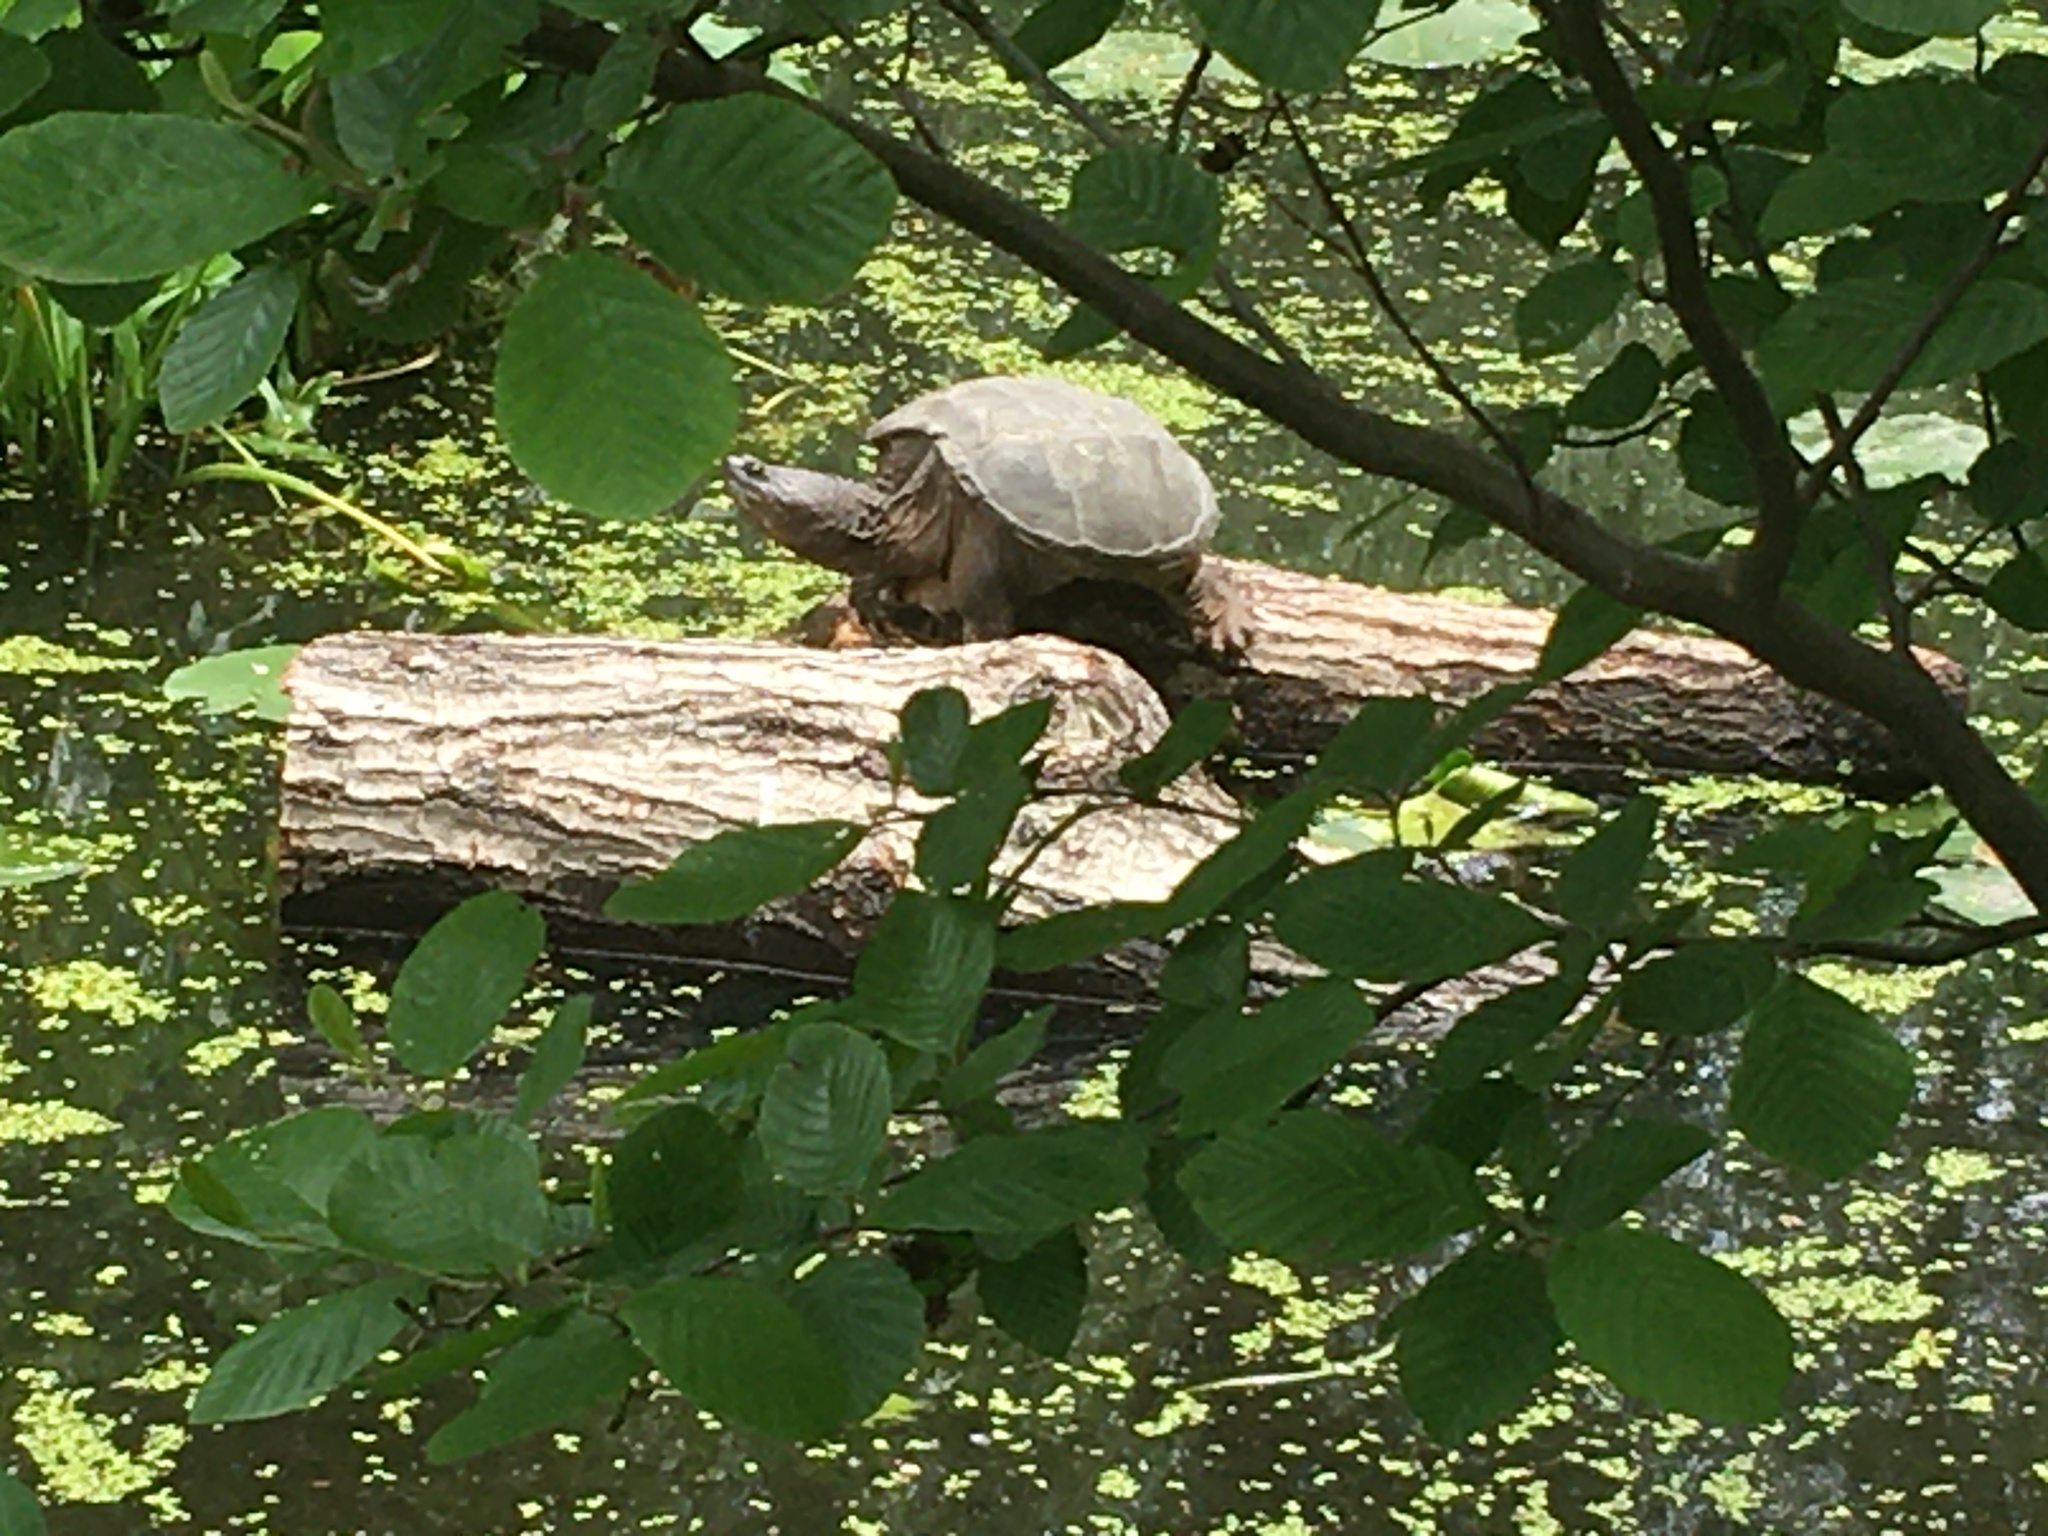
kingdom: Animalia
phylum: Chordata
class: Testudines
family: Chelydridae
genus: Chelydra
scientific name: Chelydra serpentina
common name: Common snapping turtle
